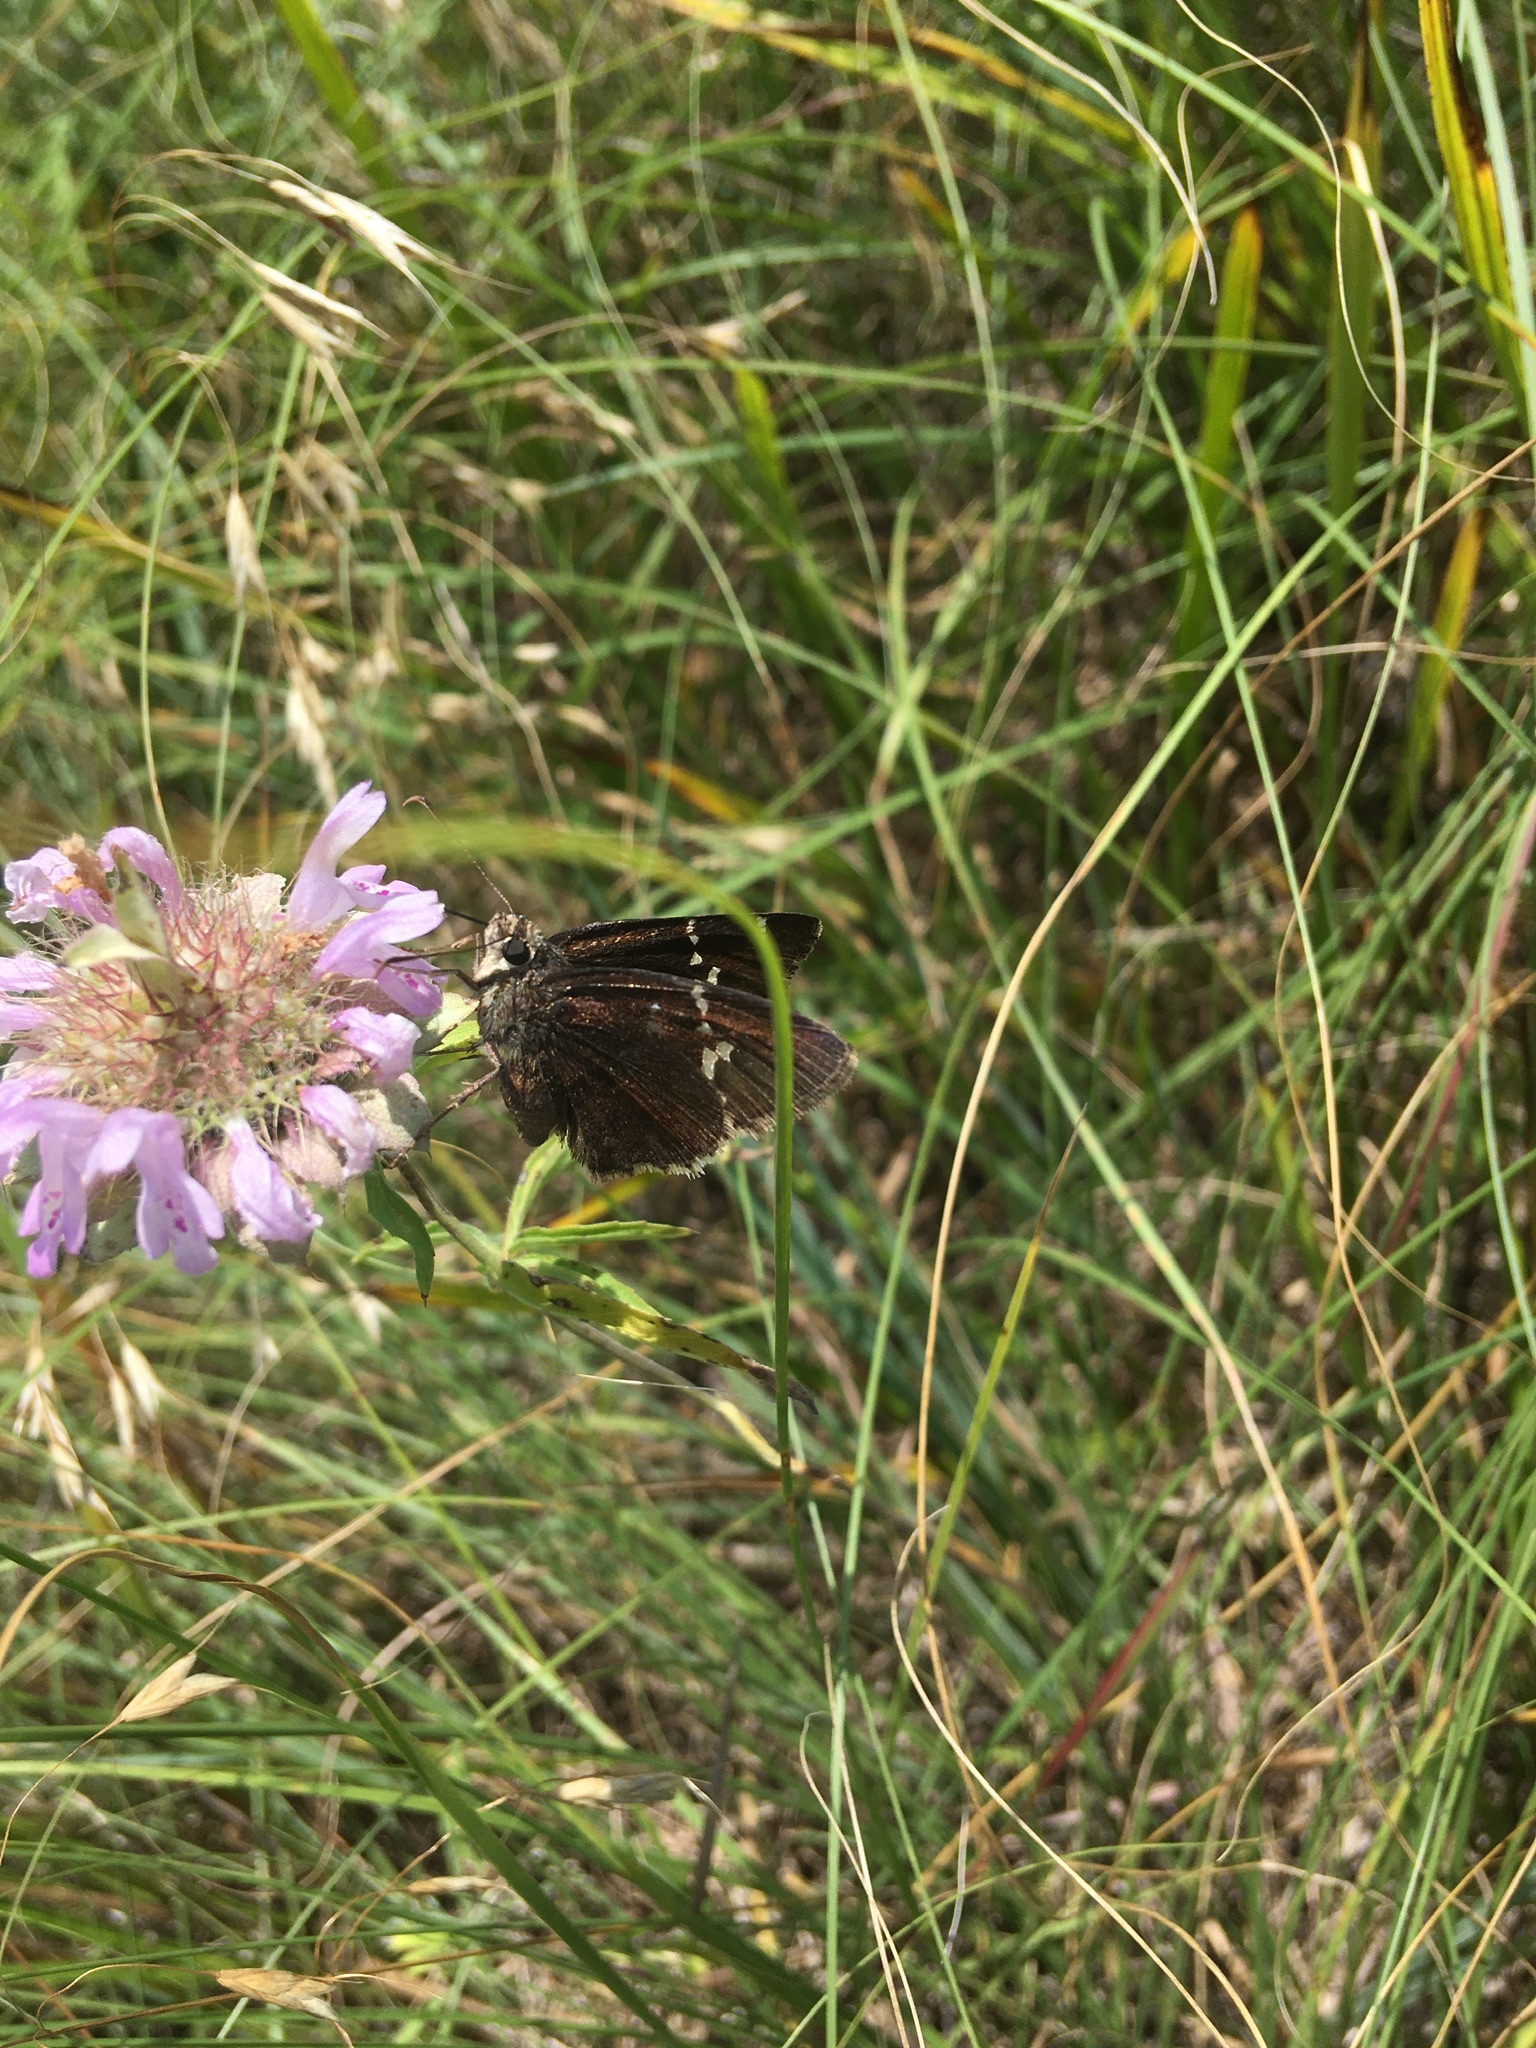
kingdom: Animalia
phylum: Arthropoda
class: Insecta
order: Lepidoptera
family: Hesperiidae
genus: Thorybes
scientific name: Thorybes daunus
